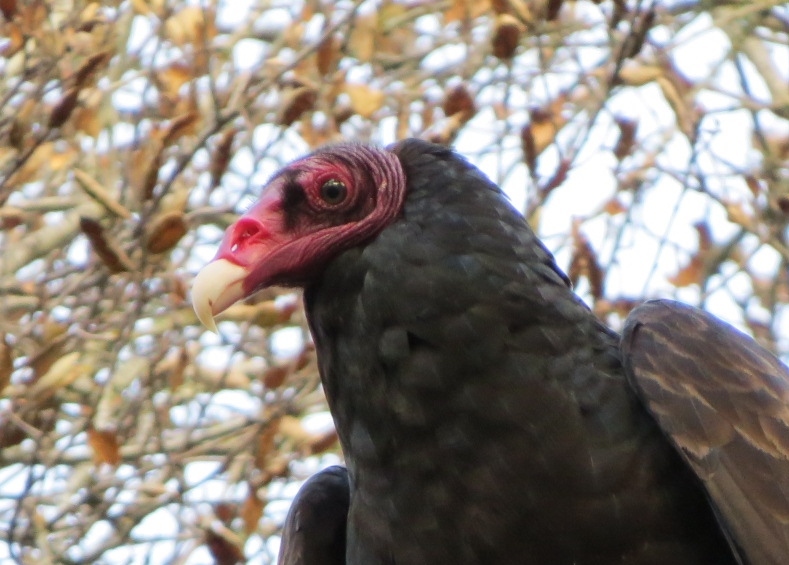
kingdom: Animalia
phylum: Chordata
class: Aves
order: Accipitriformes
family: Cathartidae
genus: Cathartes
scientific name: Cathartes aura
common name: Turkey vulture
